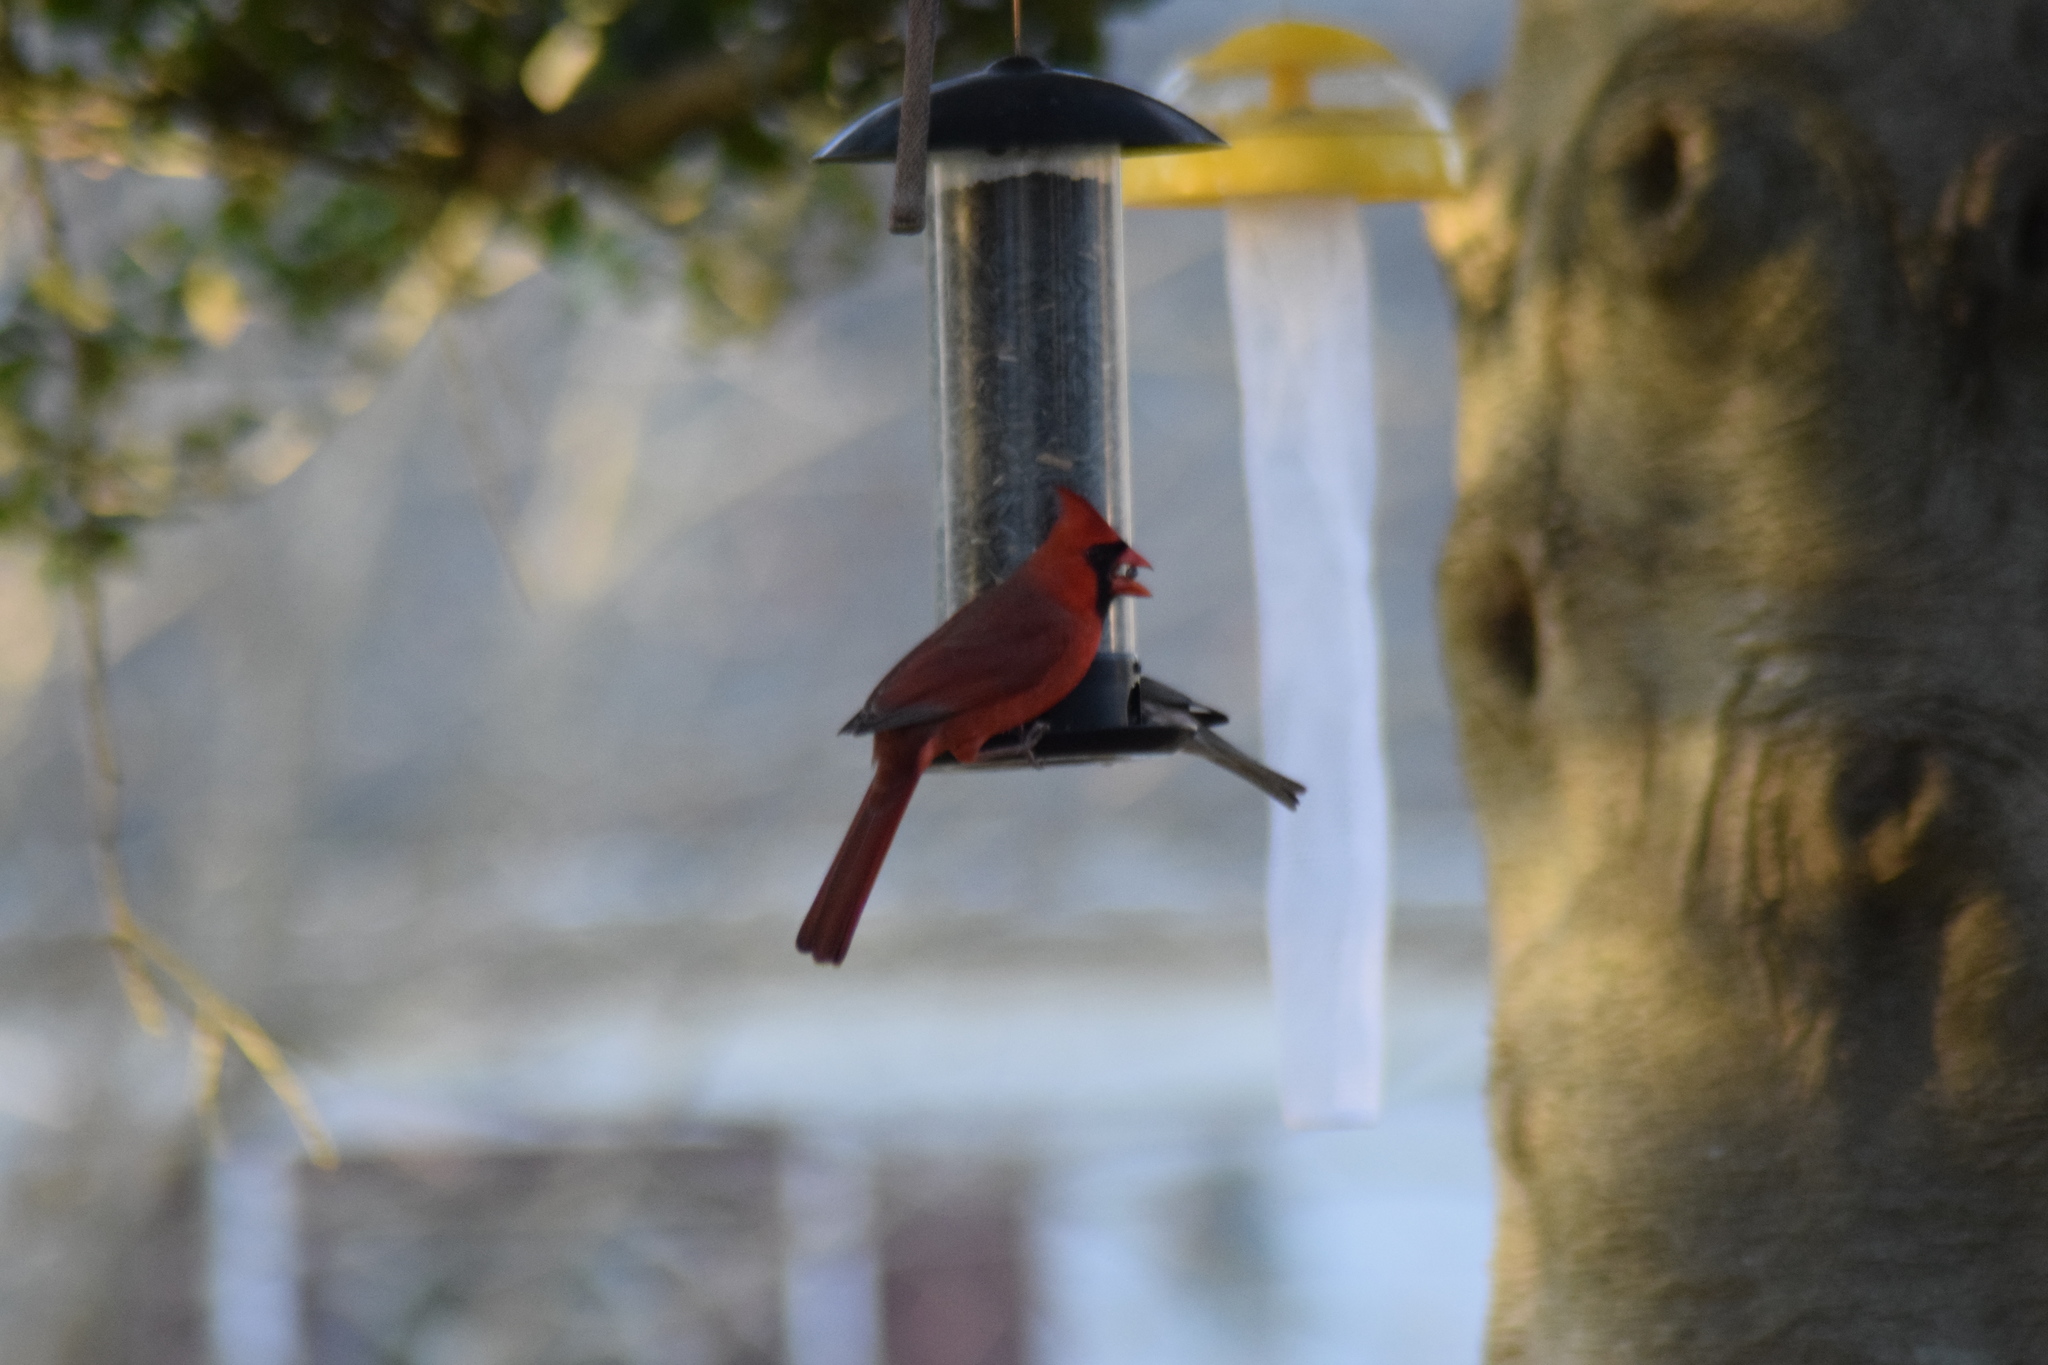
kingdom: Animalia
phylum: Chordata
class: Aves
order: Passeriformes
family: Cardinalidae
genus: Cardinalis
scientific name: Cardinalis cardinalis
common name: Northern cardinal
